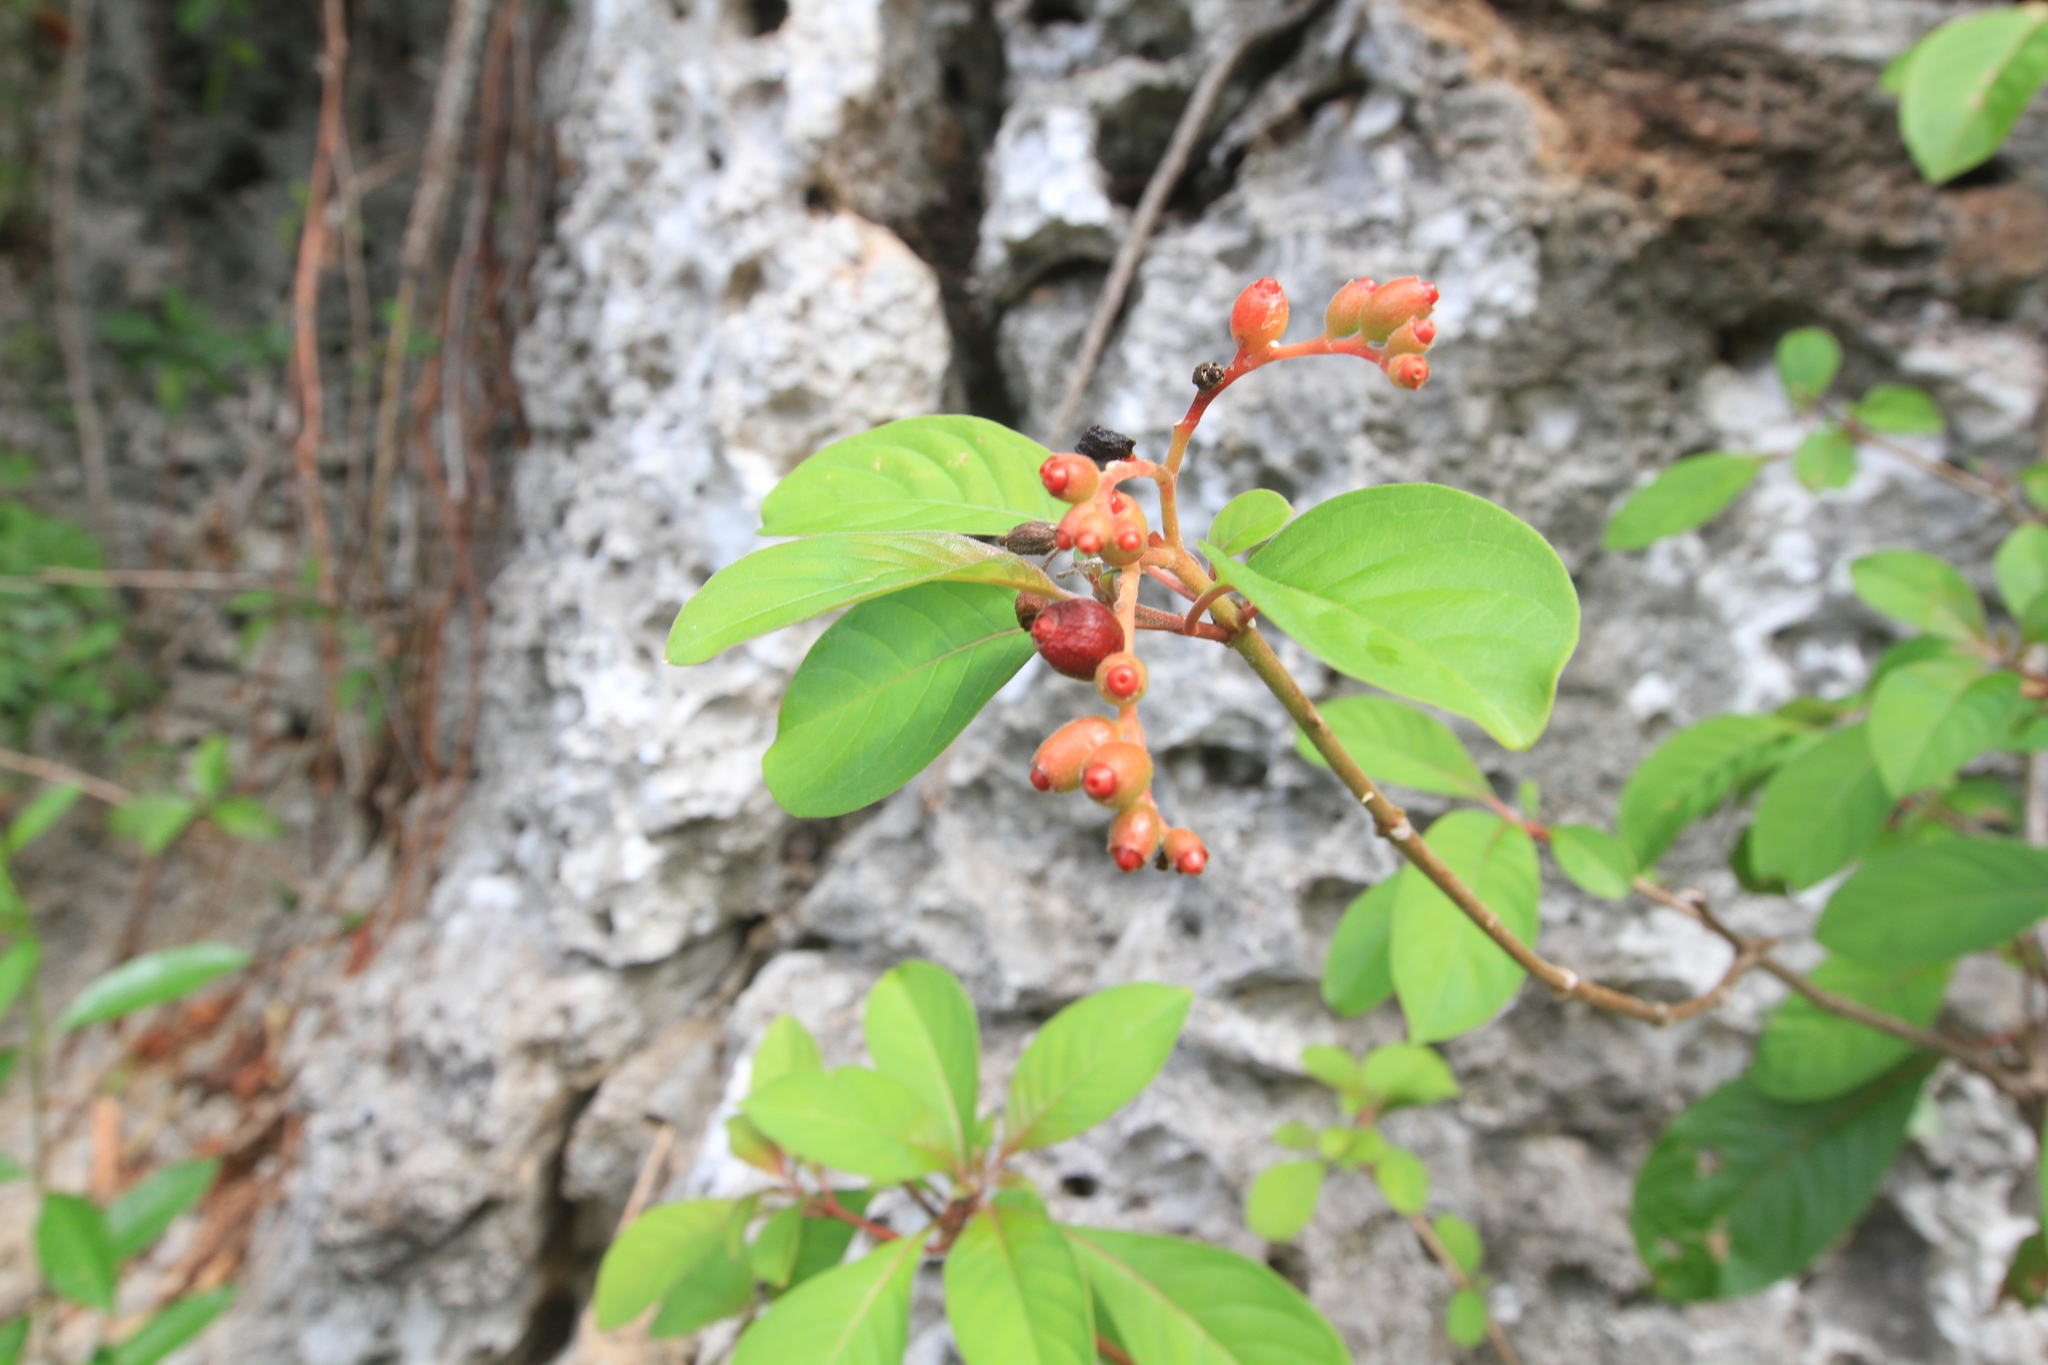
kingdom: Plantae
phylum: Tracheophyta
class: Magnoliopsida
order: Gentianales
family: Rubiaceae
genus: Hamelia
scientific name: Hamelia patens
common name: Redhead
